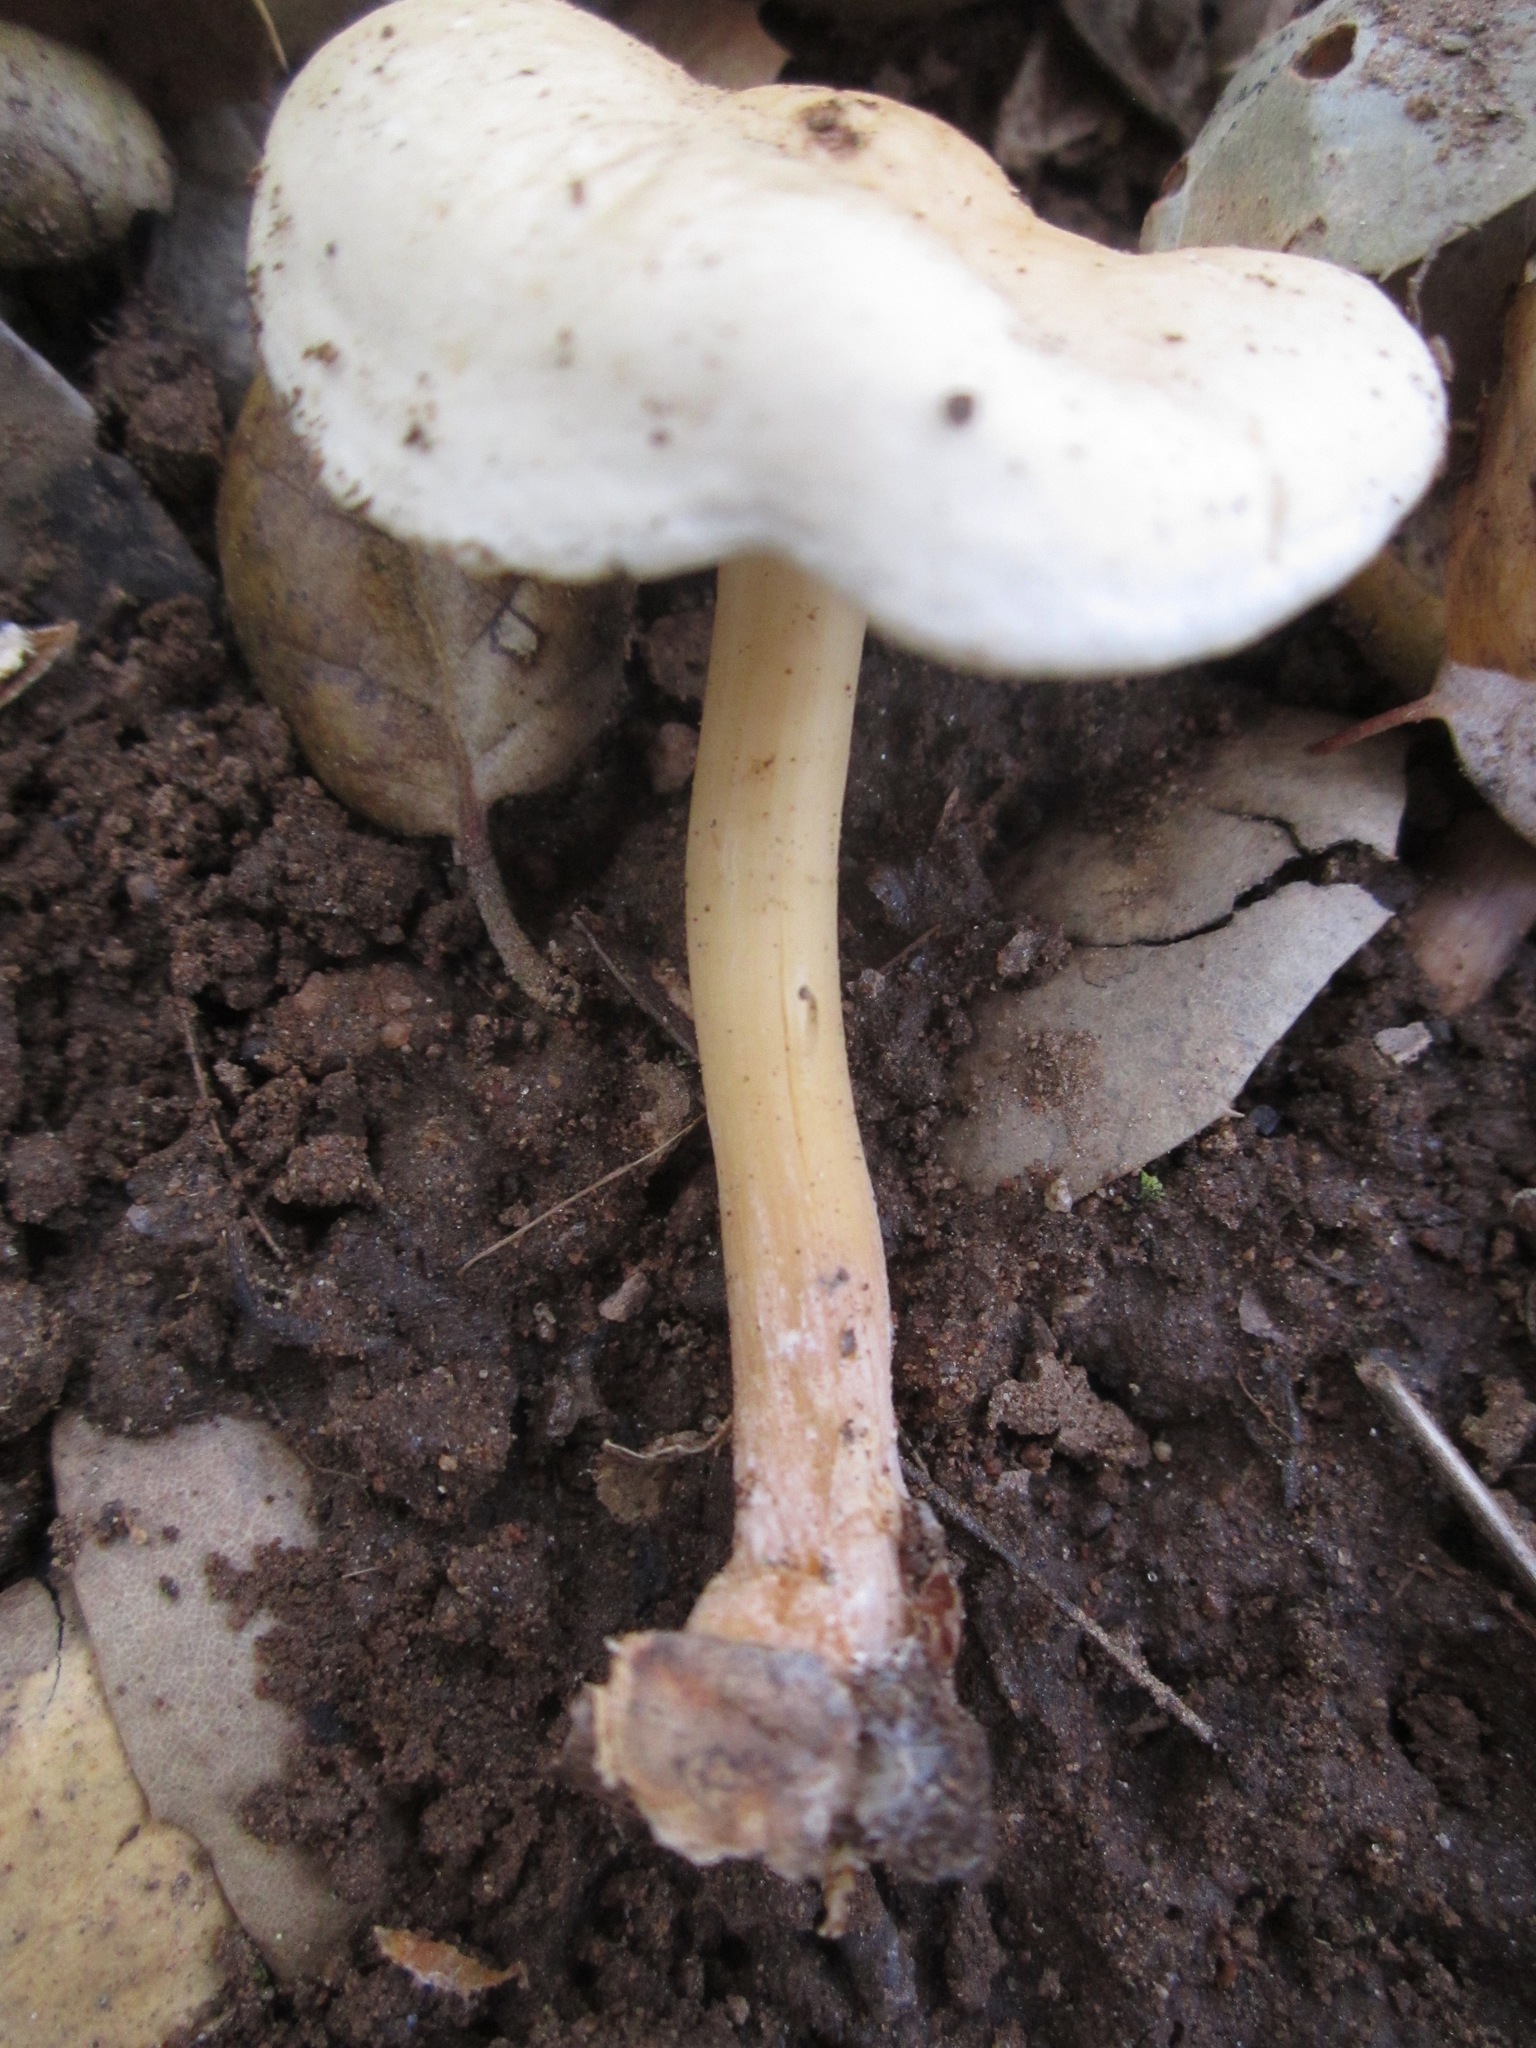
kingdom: Fungi
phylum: Basidiomycota
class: Agaricomycetes
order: Agaricales
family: Omphalotaceae
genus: Gymnopus
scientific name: Gymnopus dryophilus
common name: Penny top
